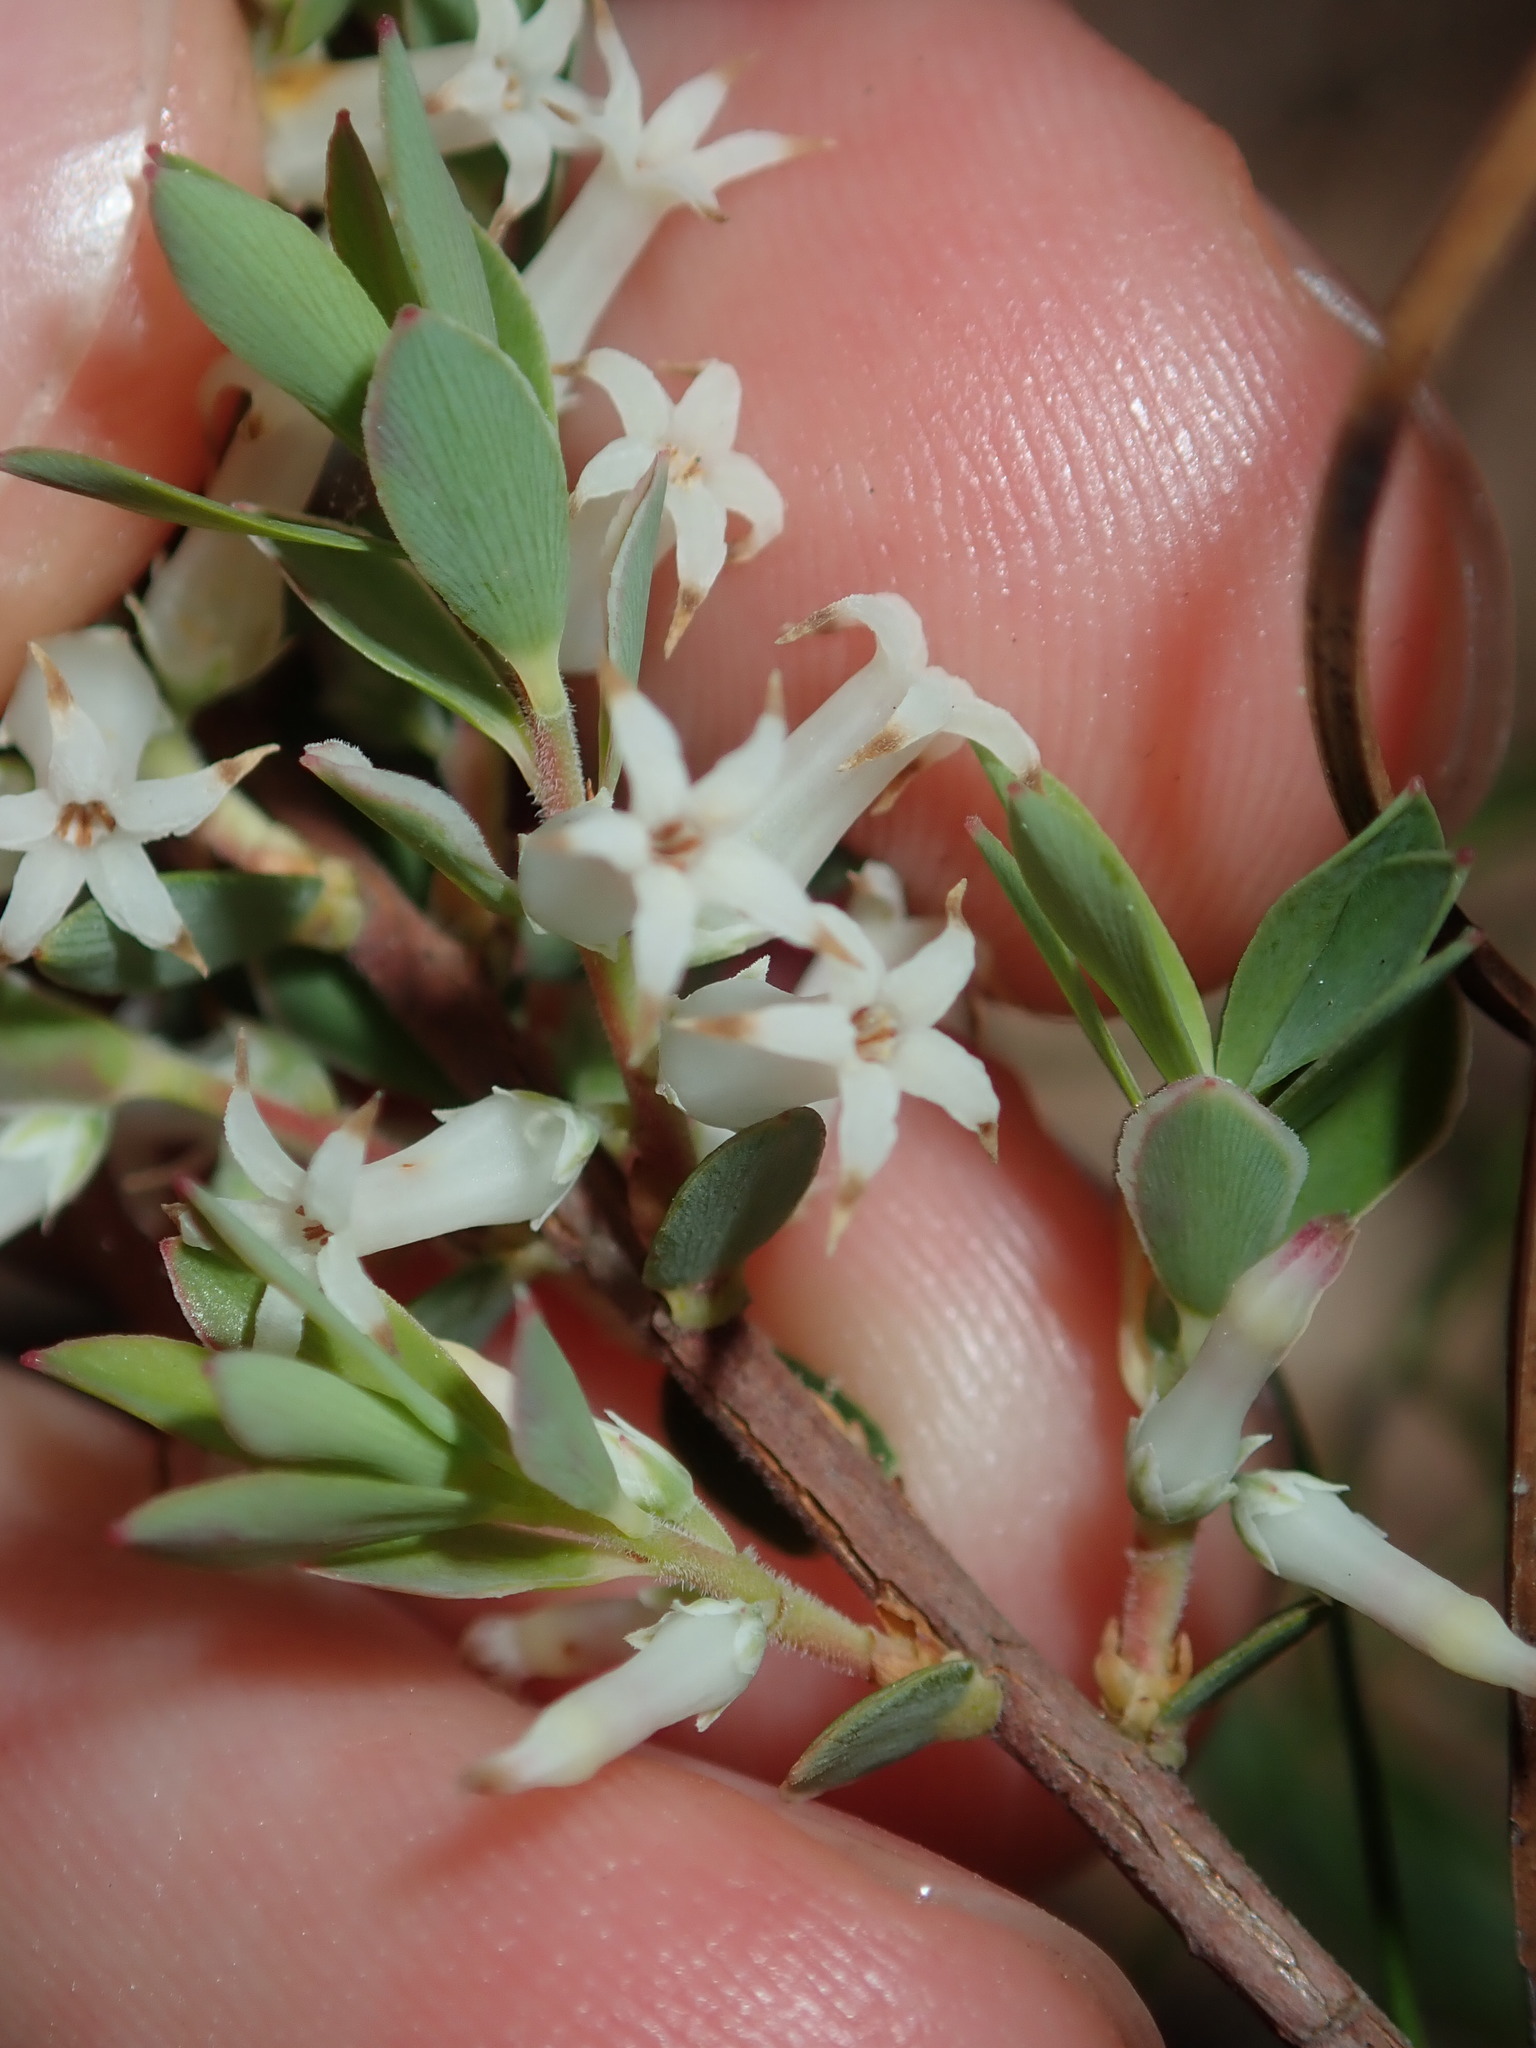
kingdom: Plantae
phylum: Tracheophyta
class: Magnoliopsida
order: Ericales
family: Ericaceae
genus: Brachyloma
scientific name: Brachyloma daphnoides
